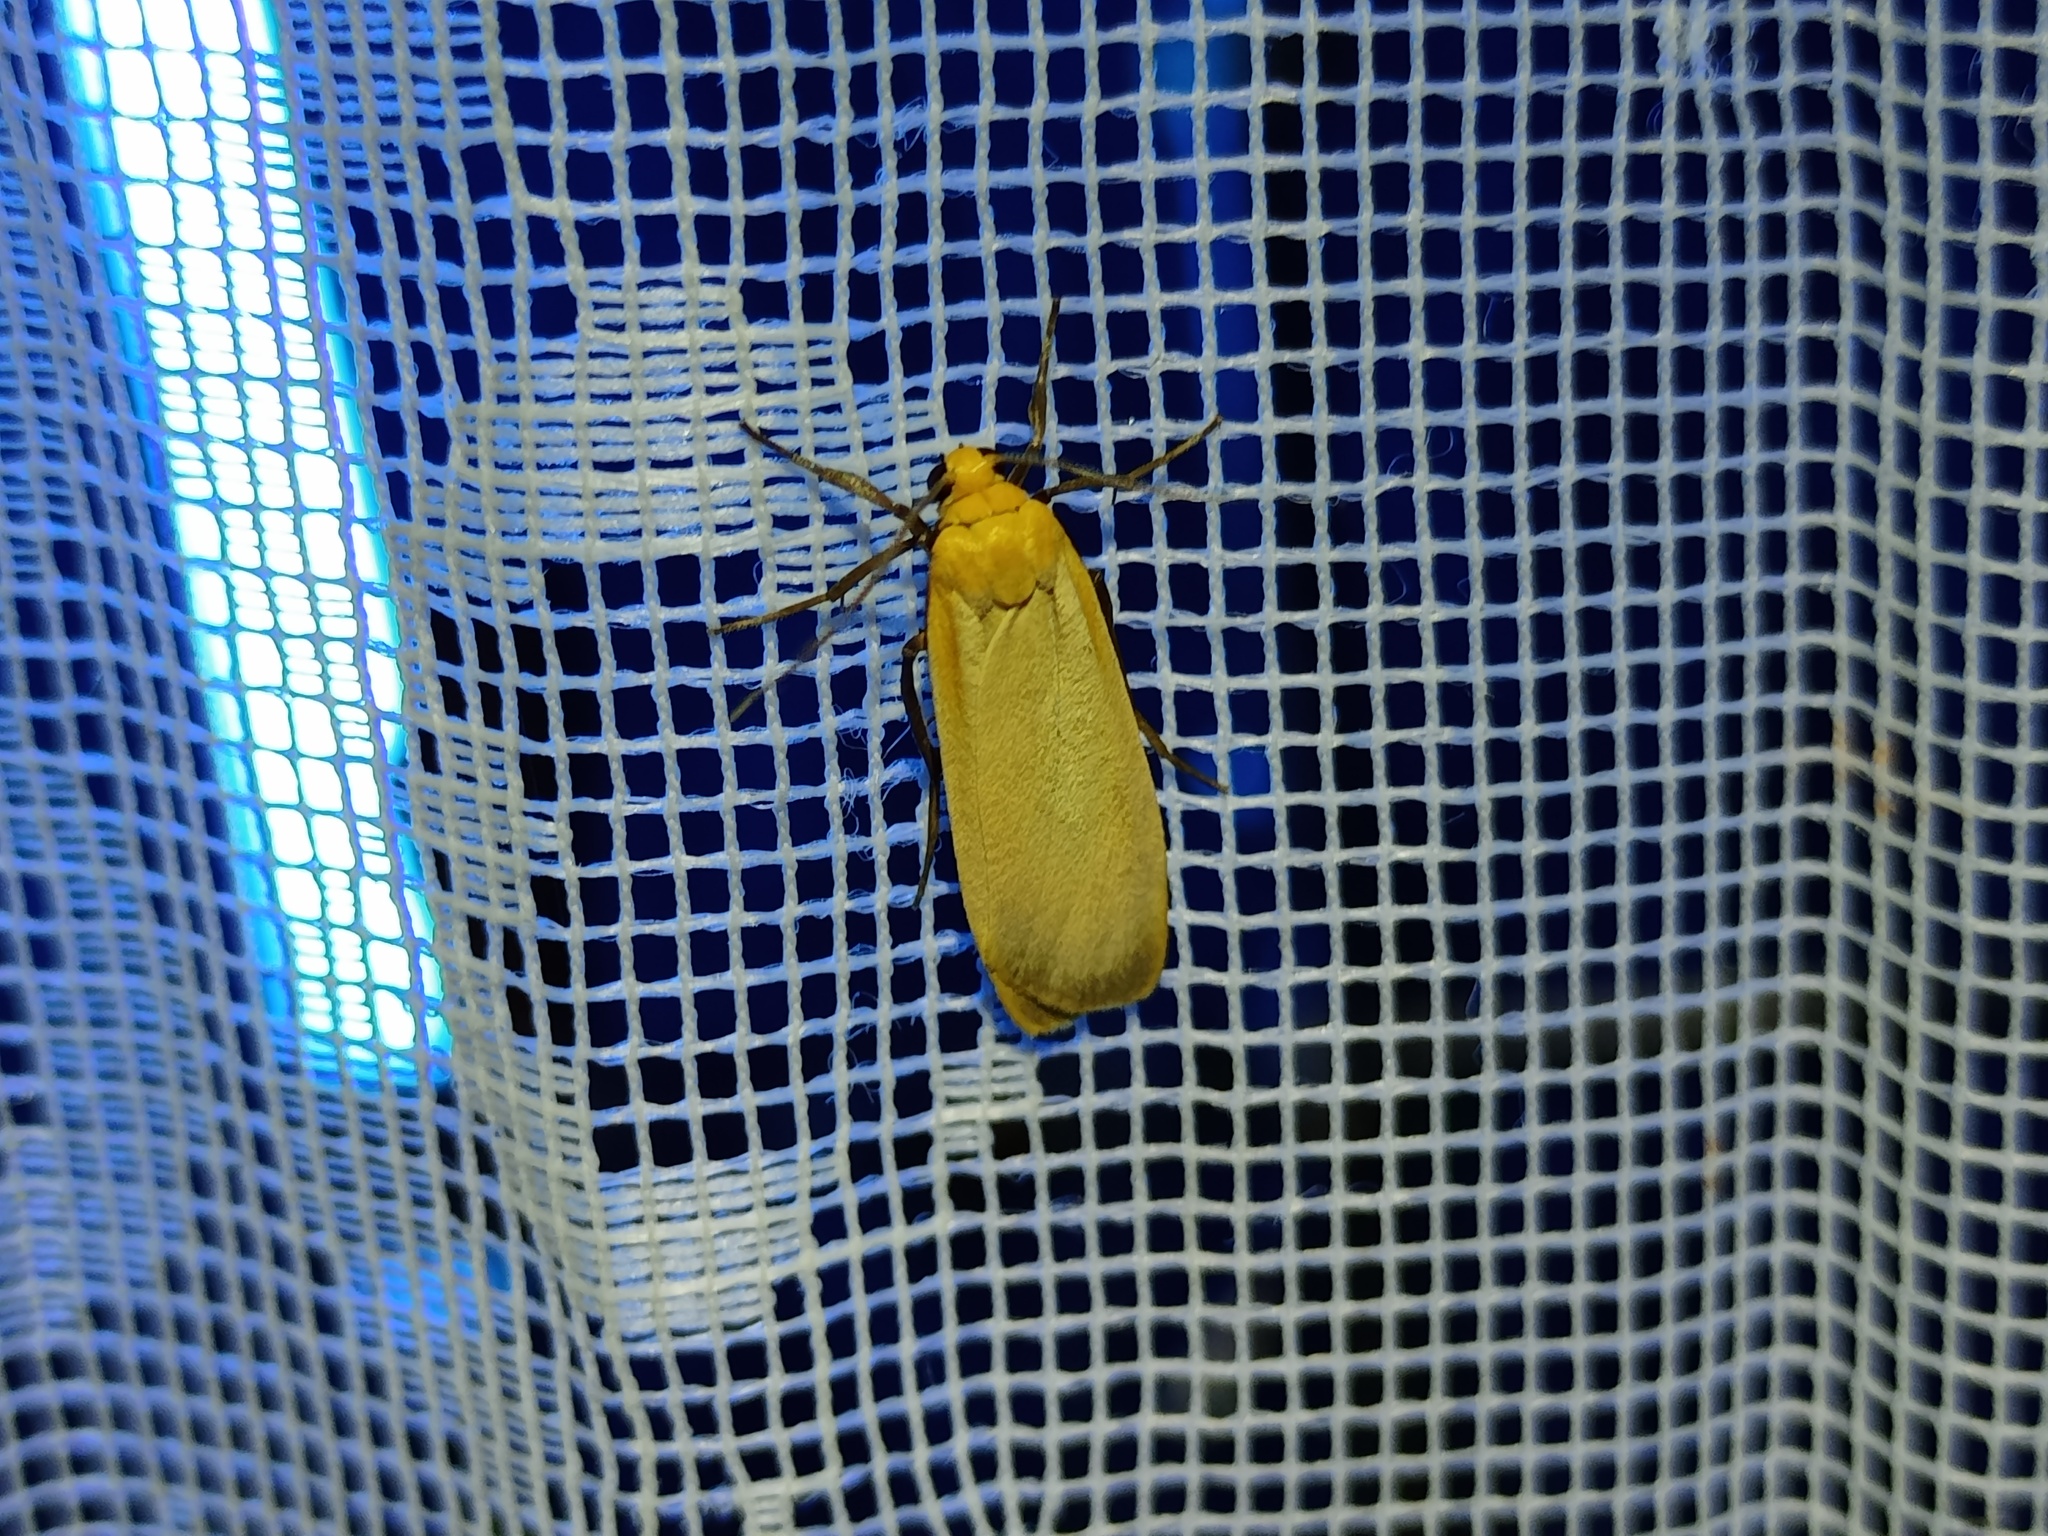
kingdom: Animalia
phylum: Arthropoda
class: Insecta
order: Lepidoptera
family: Erebidae
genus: Katha
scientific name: Katha depressa
